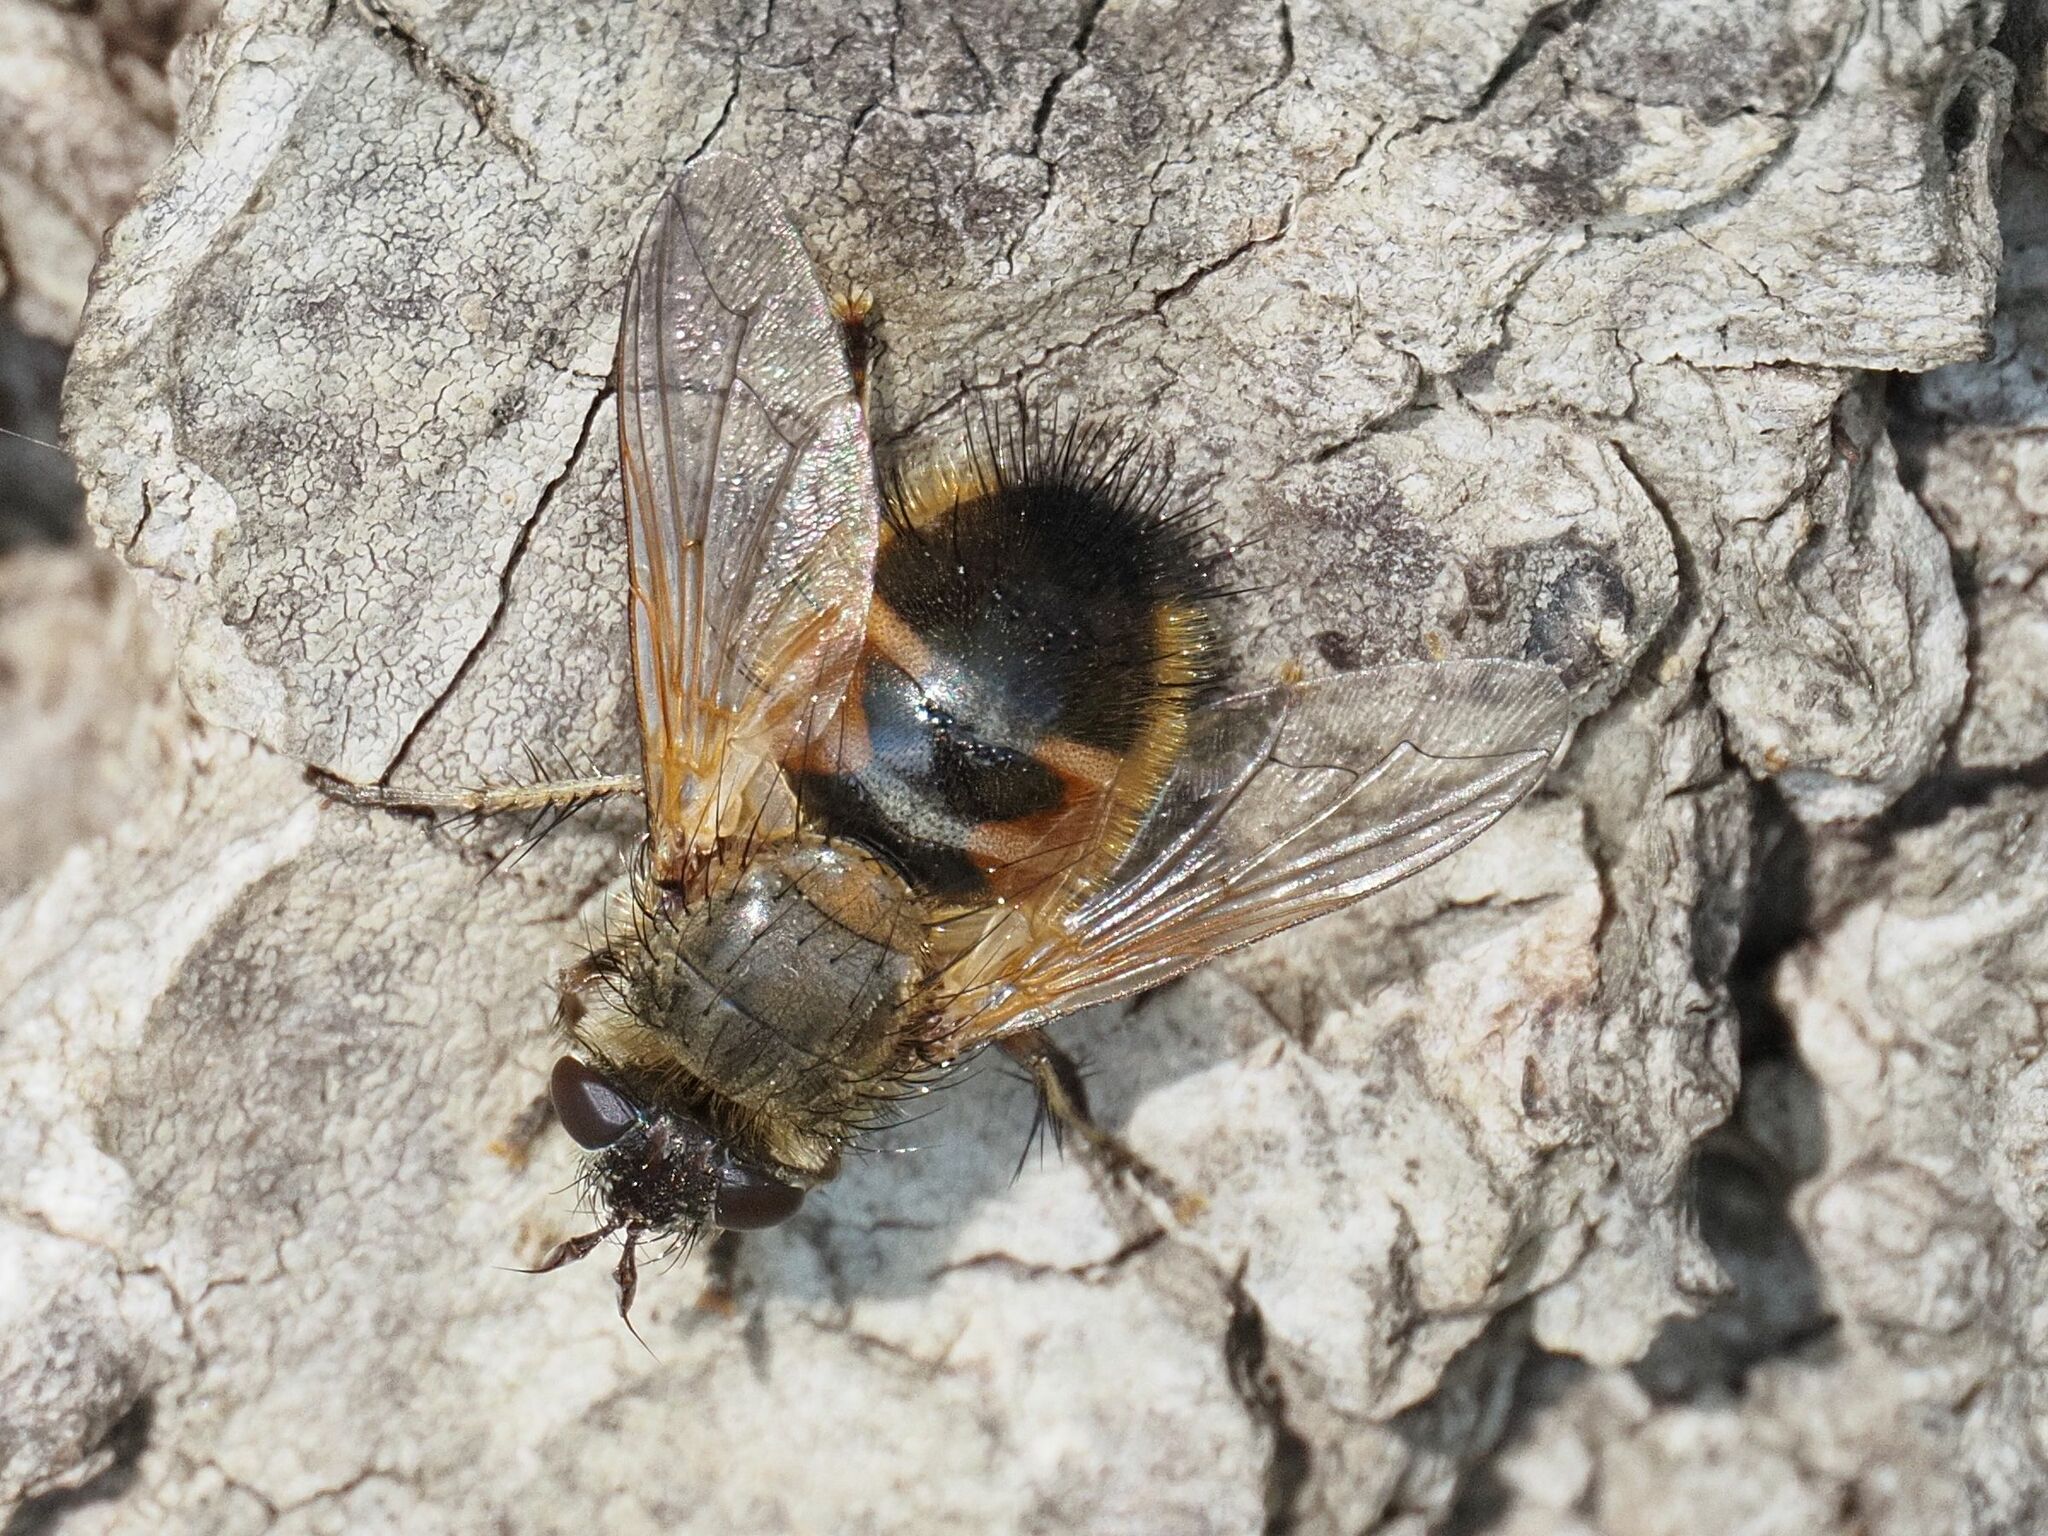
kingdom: Animalia
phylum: Arthropoda
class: Insecta
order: Diptera
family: Tachinidae
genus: Tachina
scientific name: Tachina lurida
